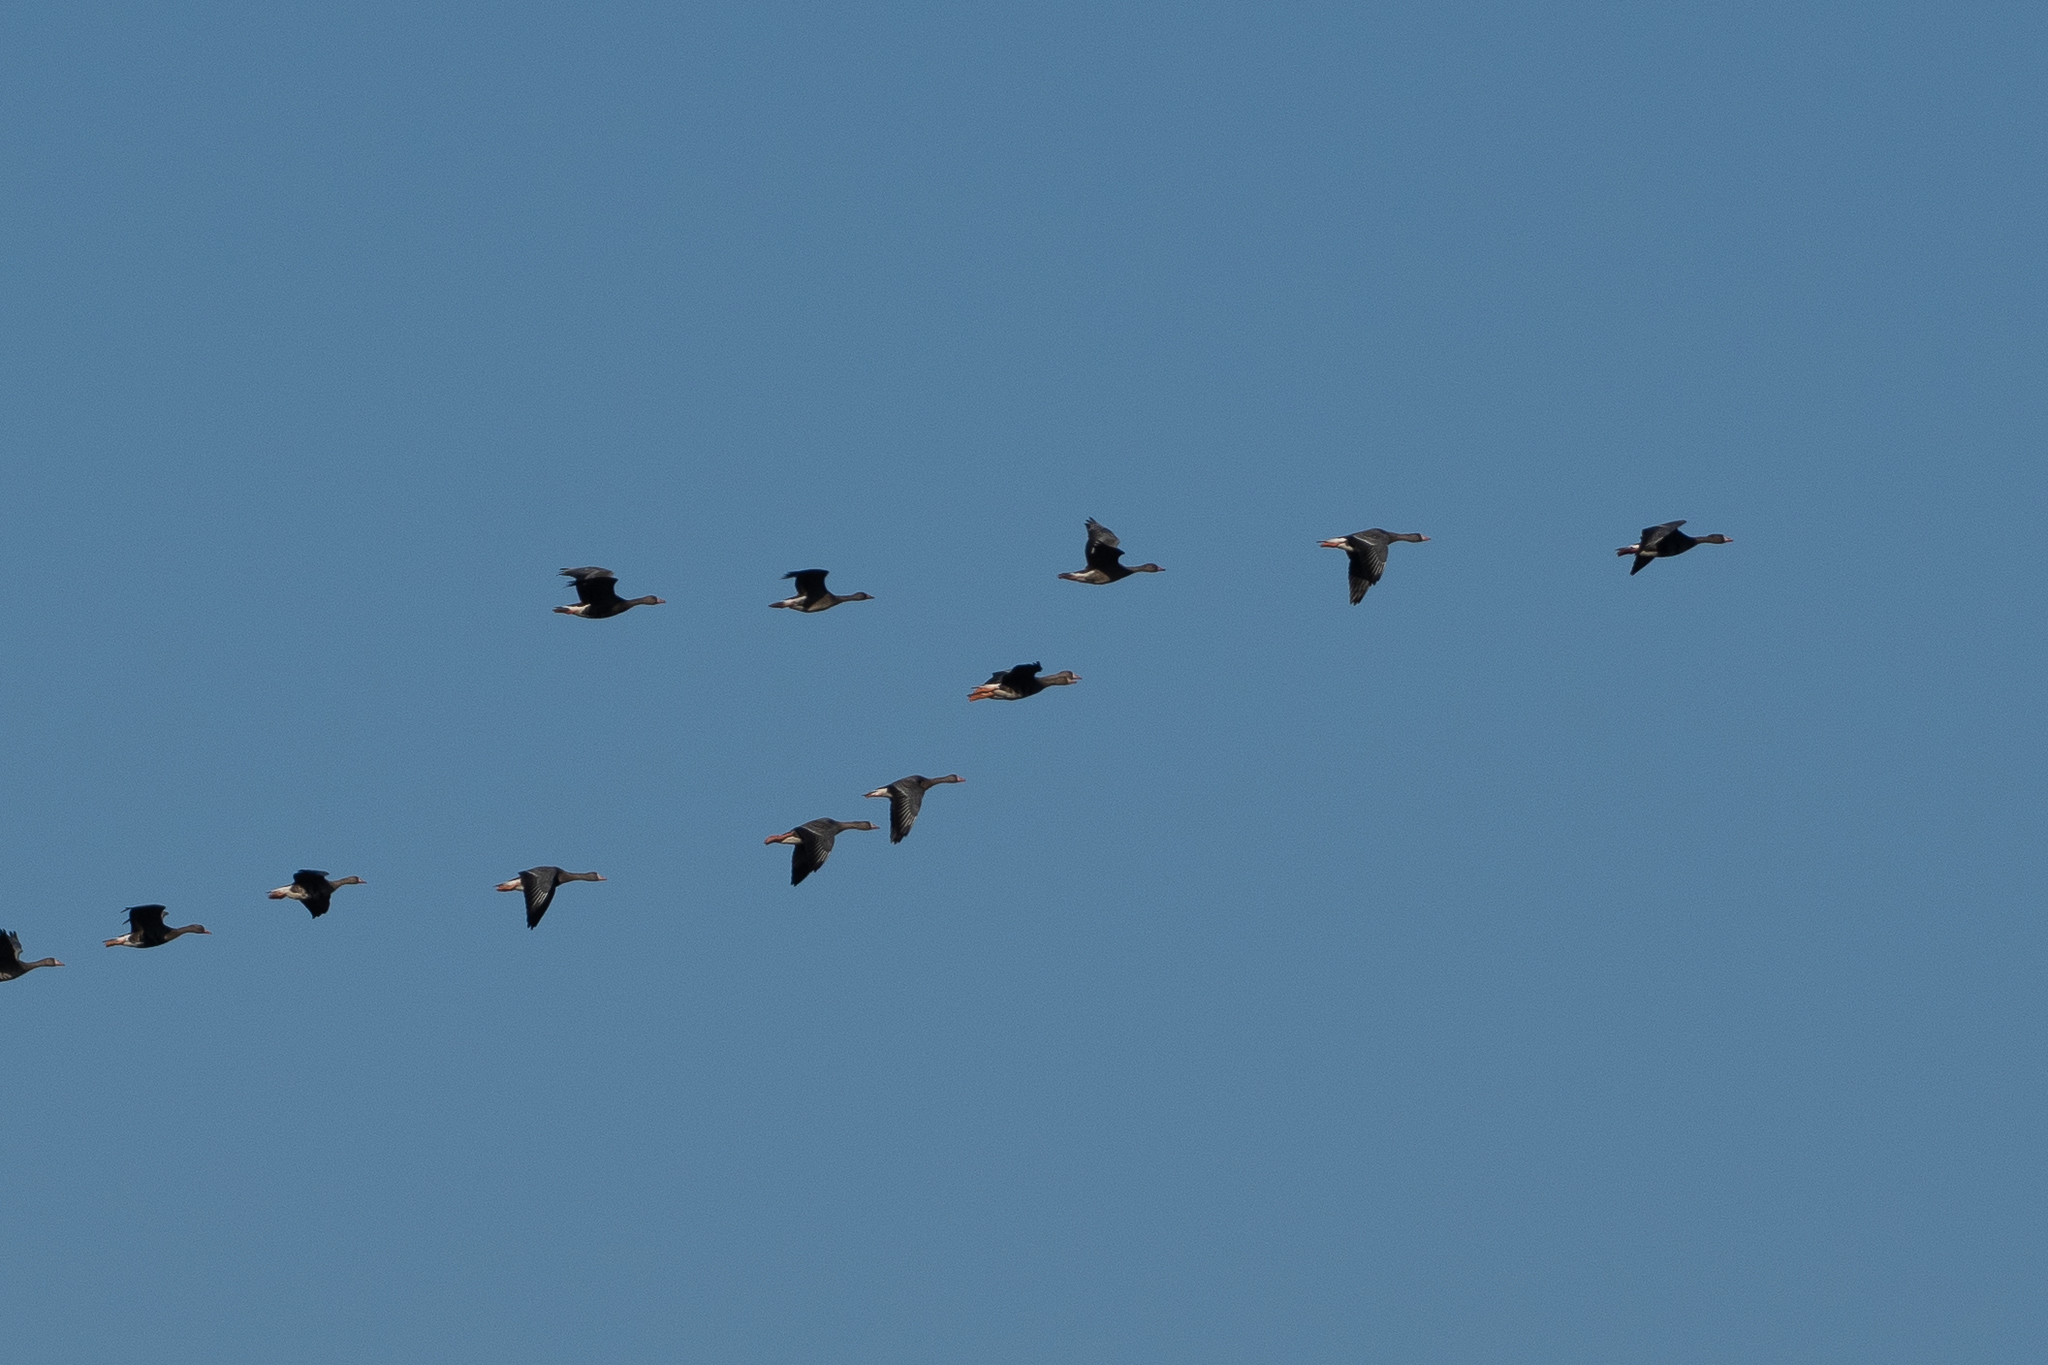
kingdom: Animalia
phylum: Chordata
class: Aves
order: Anseriformes
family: Anatidae
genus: Anser
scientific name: Anser albifrons
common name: Greater white-fronted goose
